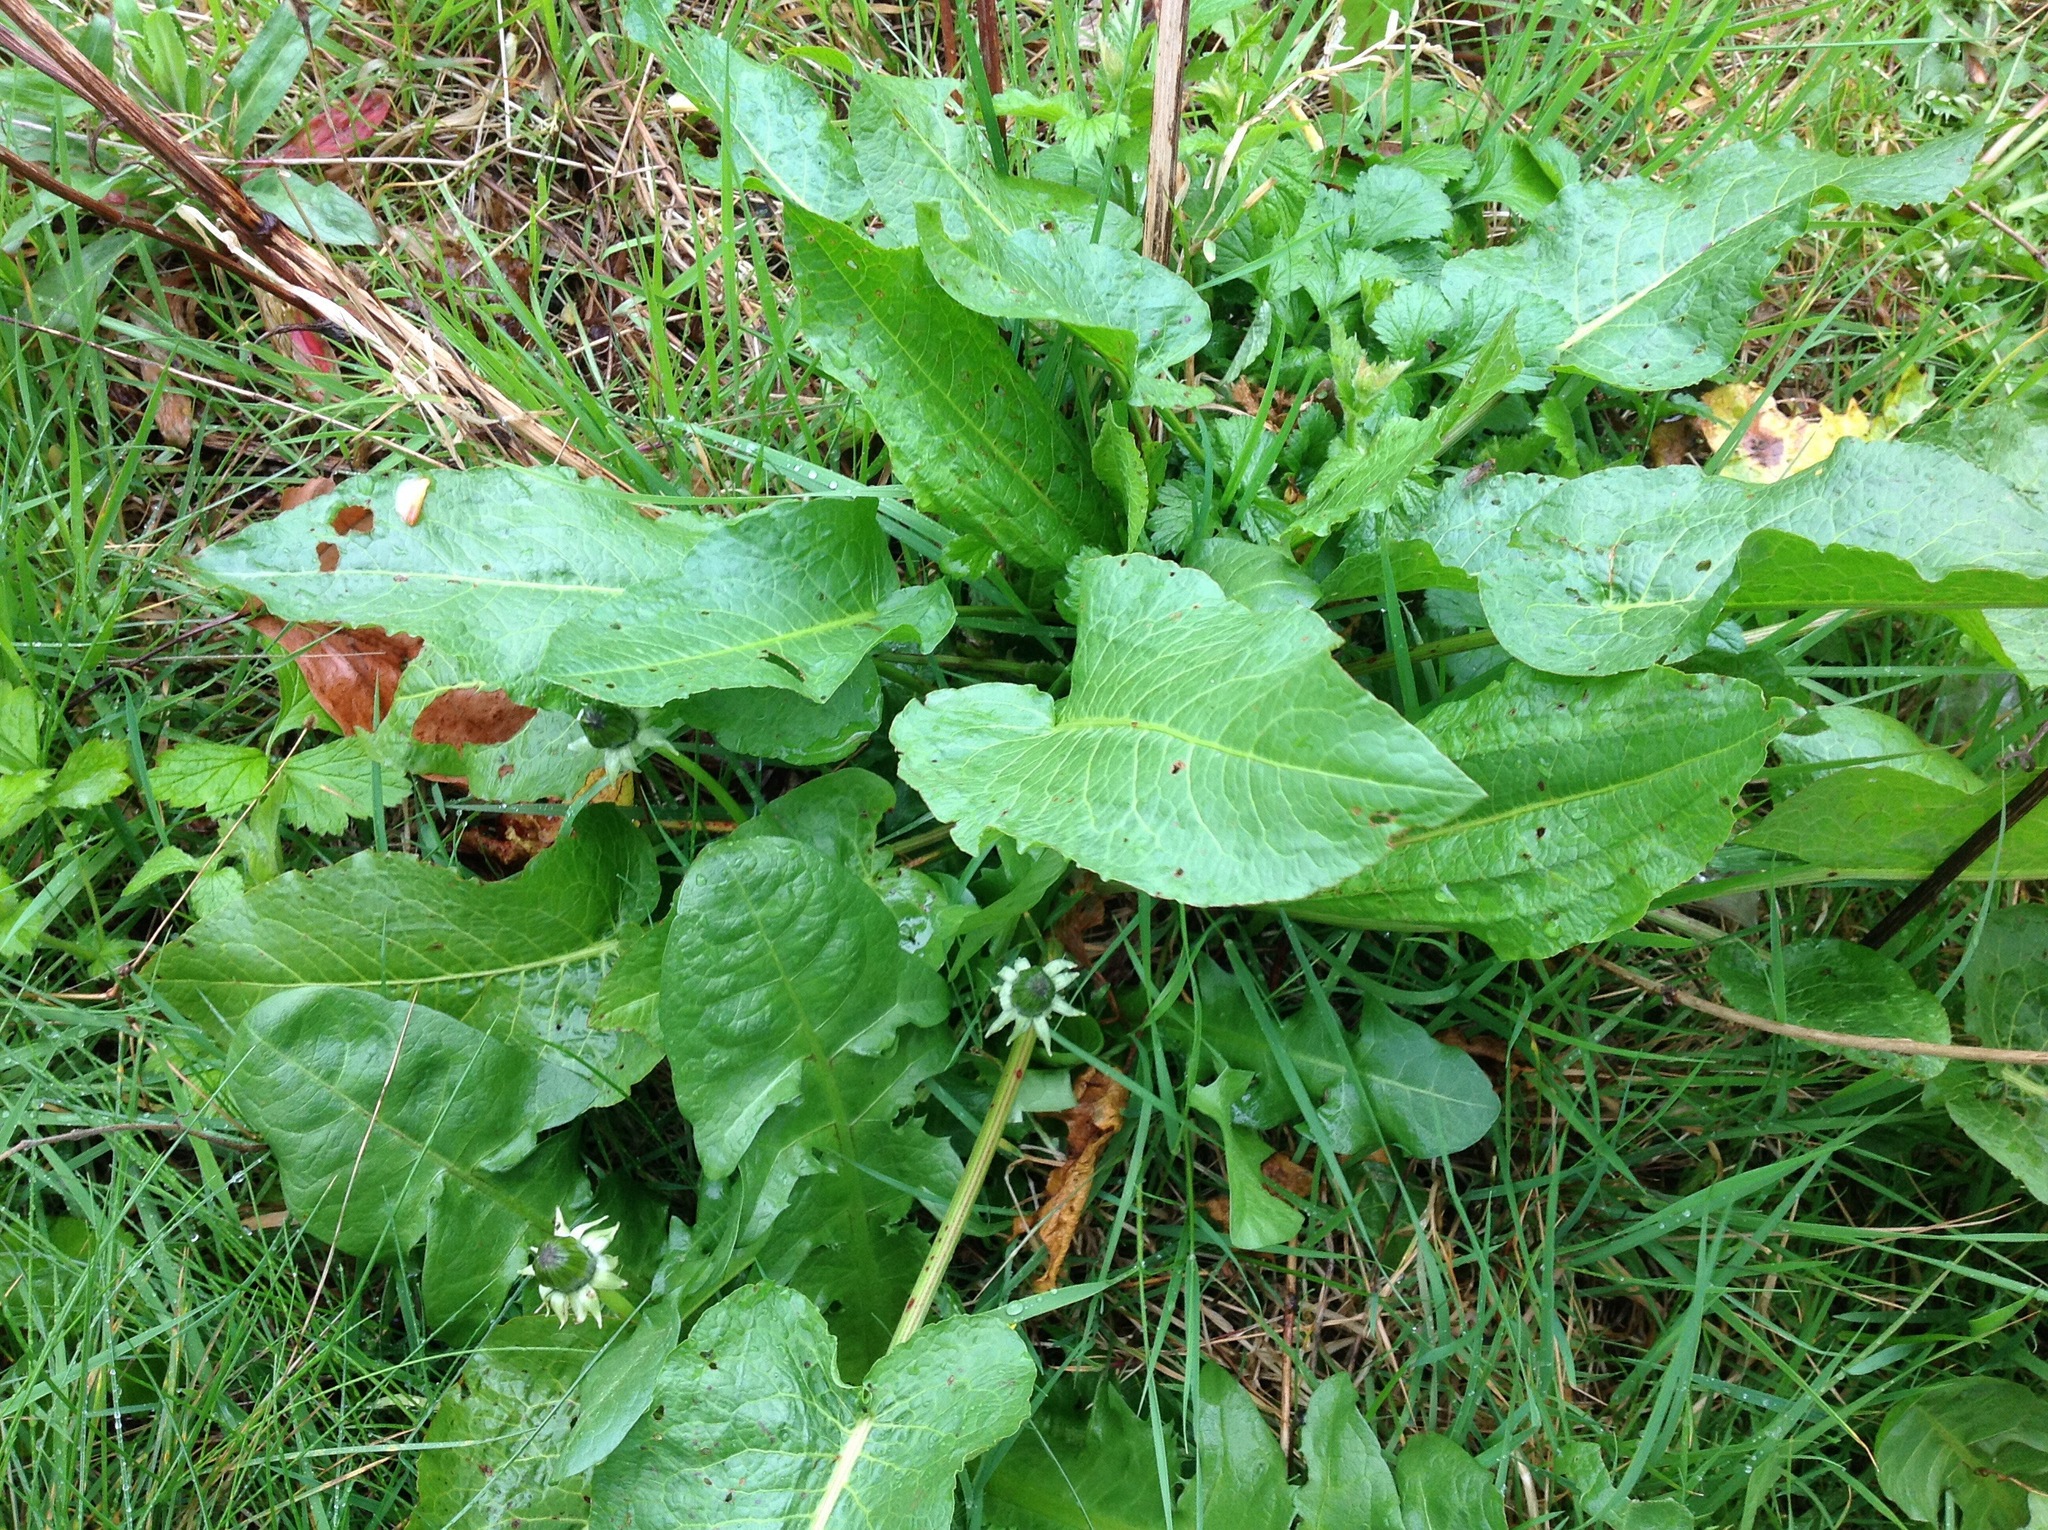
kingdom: Plantae
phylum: Tracheophyta
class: Magnoliopsida
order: Caryophyllales
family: Polygonaceae
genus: Rumex
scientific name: Rumex obtusifolius
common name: Bitter dock
